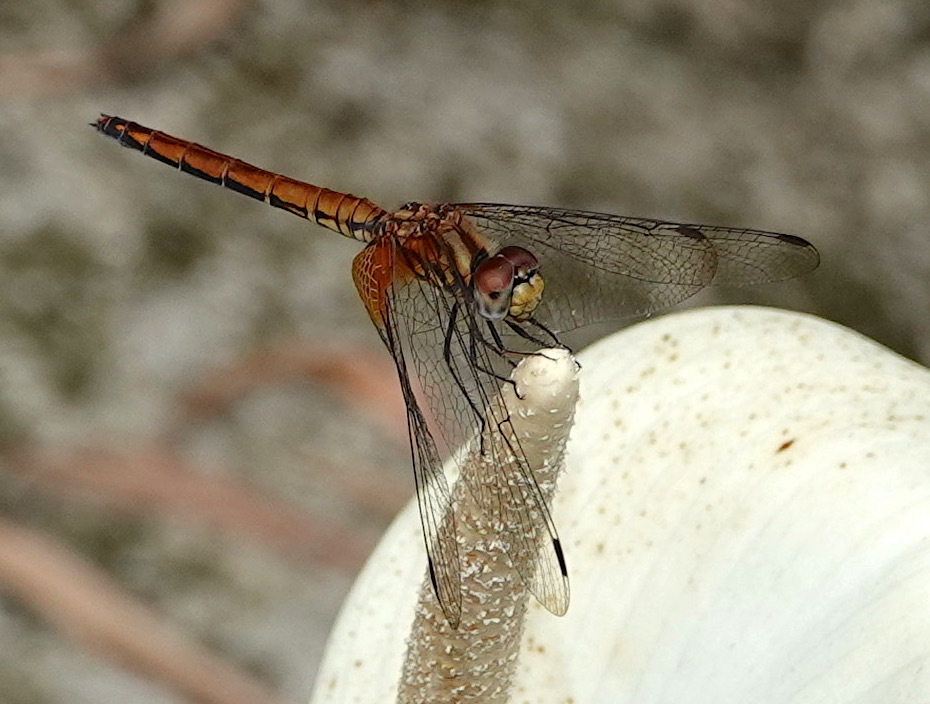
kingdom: Animalia
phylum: Arthropoda
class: Insecta
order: Odonata
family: Libellulidae
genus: Trithemis
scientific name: Trithemis aurora
